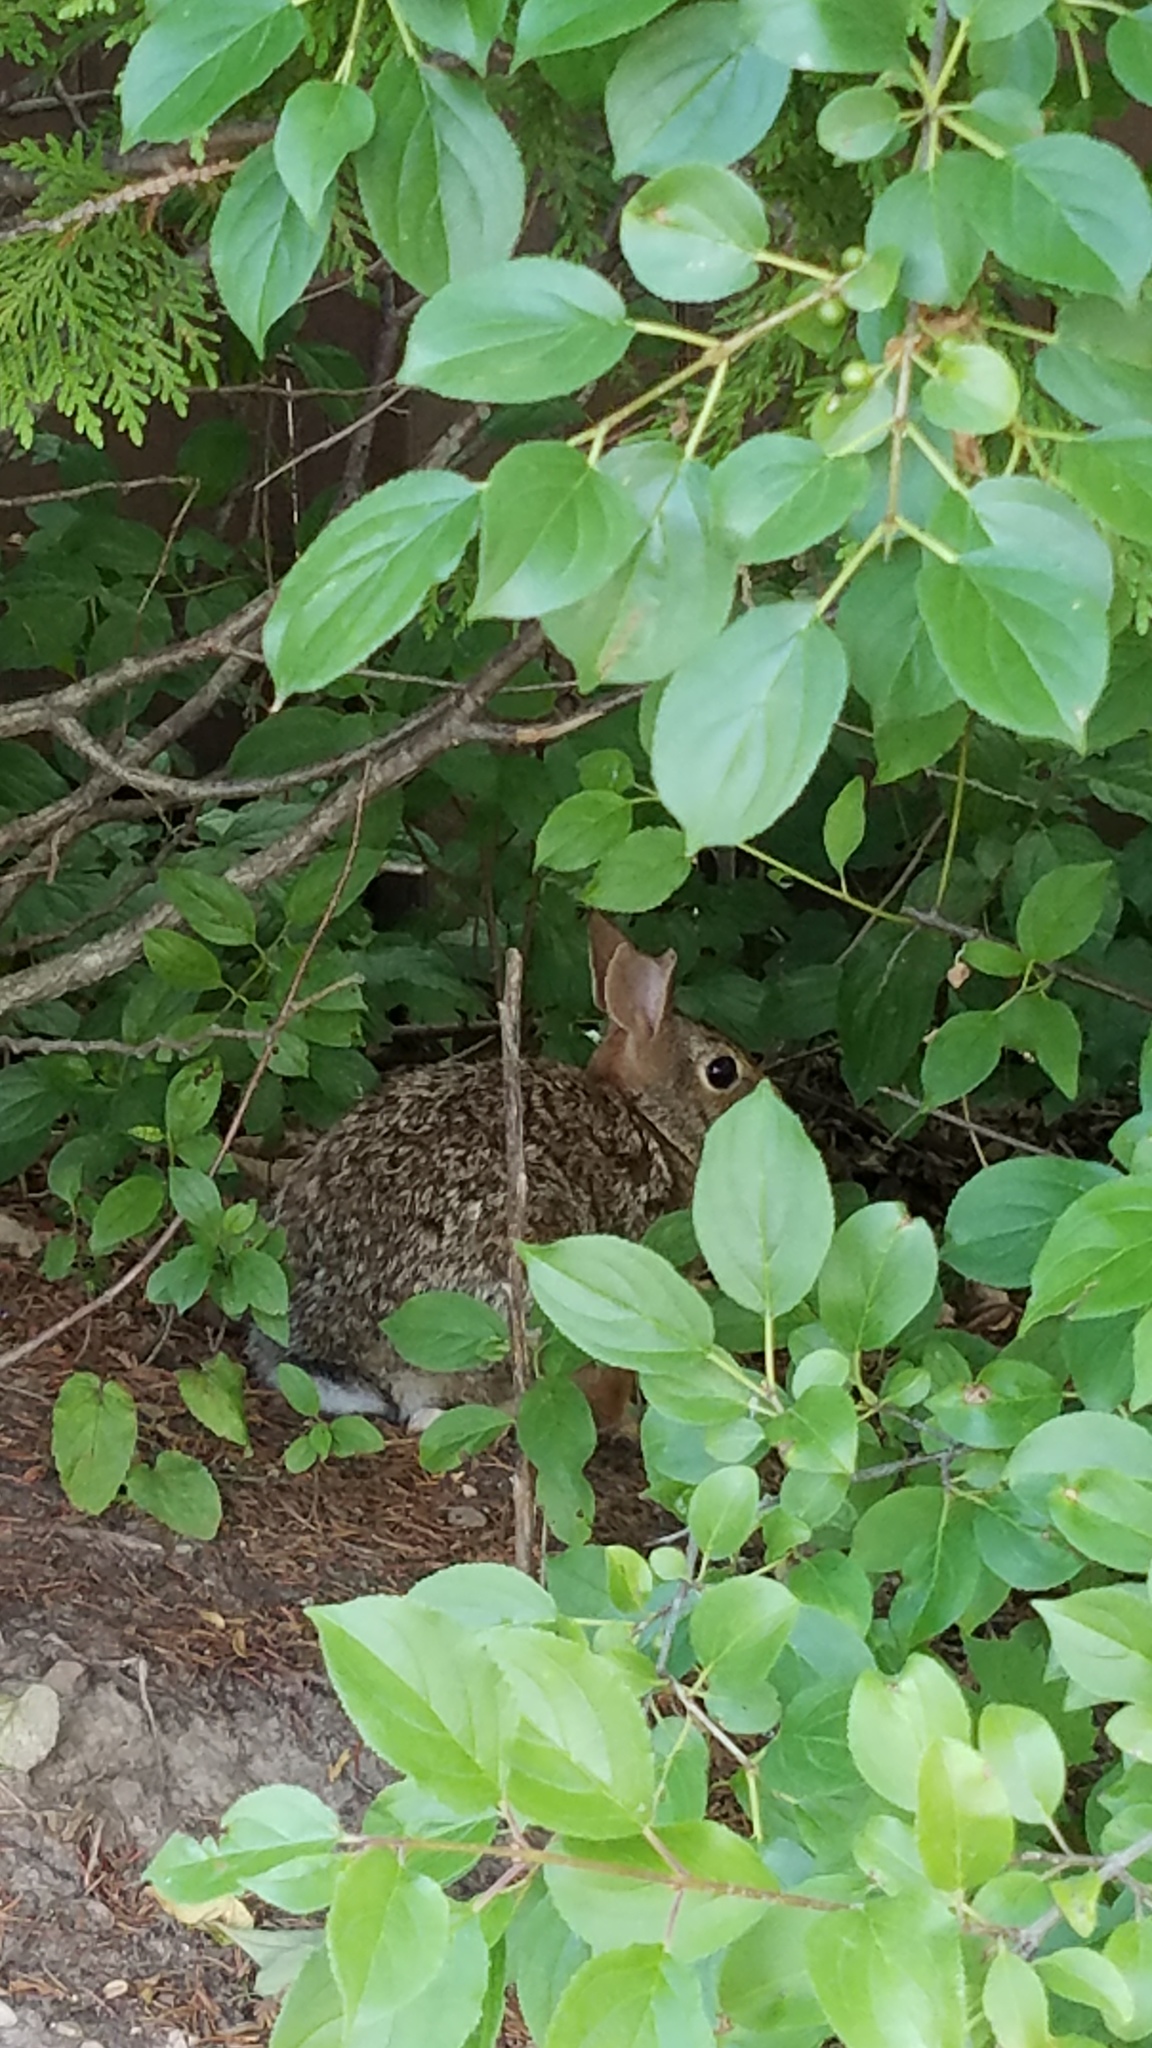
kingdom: Animalia
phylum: Chordata
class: Mammalia
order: Lagomorpha
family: Leporidae
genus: Sylvilagus
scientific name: Sylvilagus floridanus
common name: Eastern cottontail
